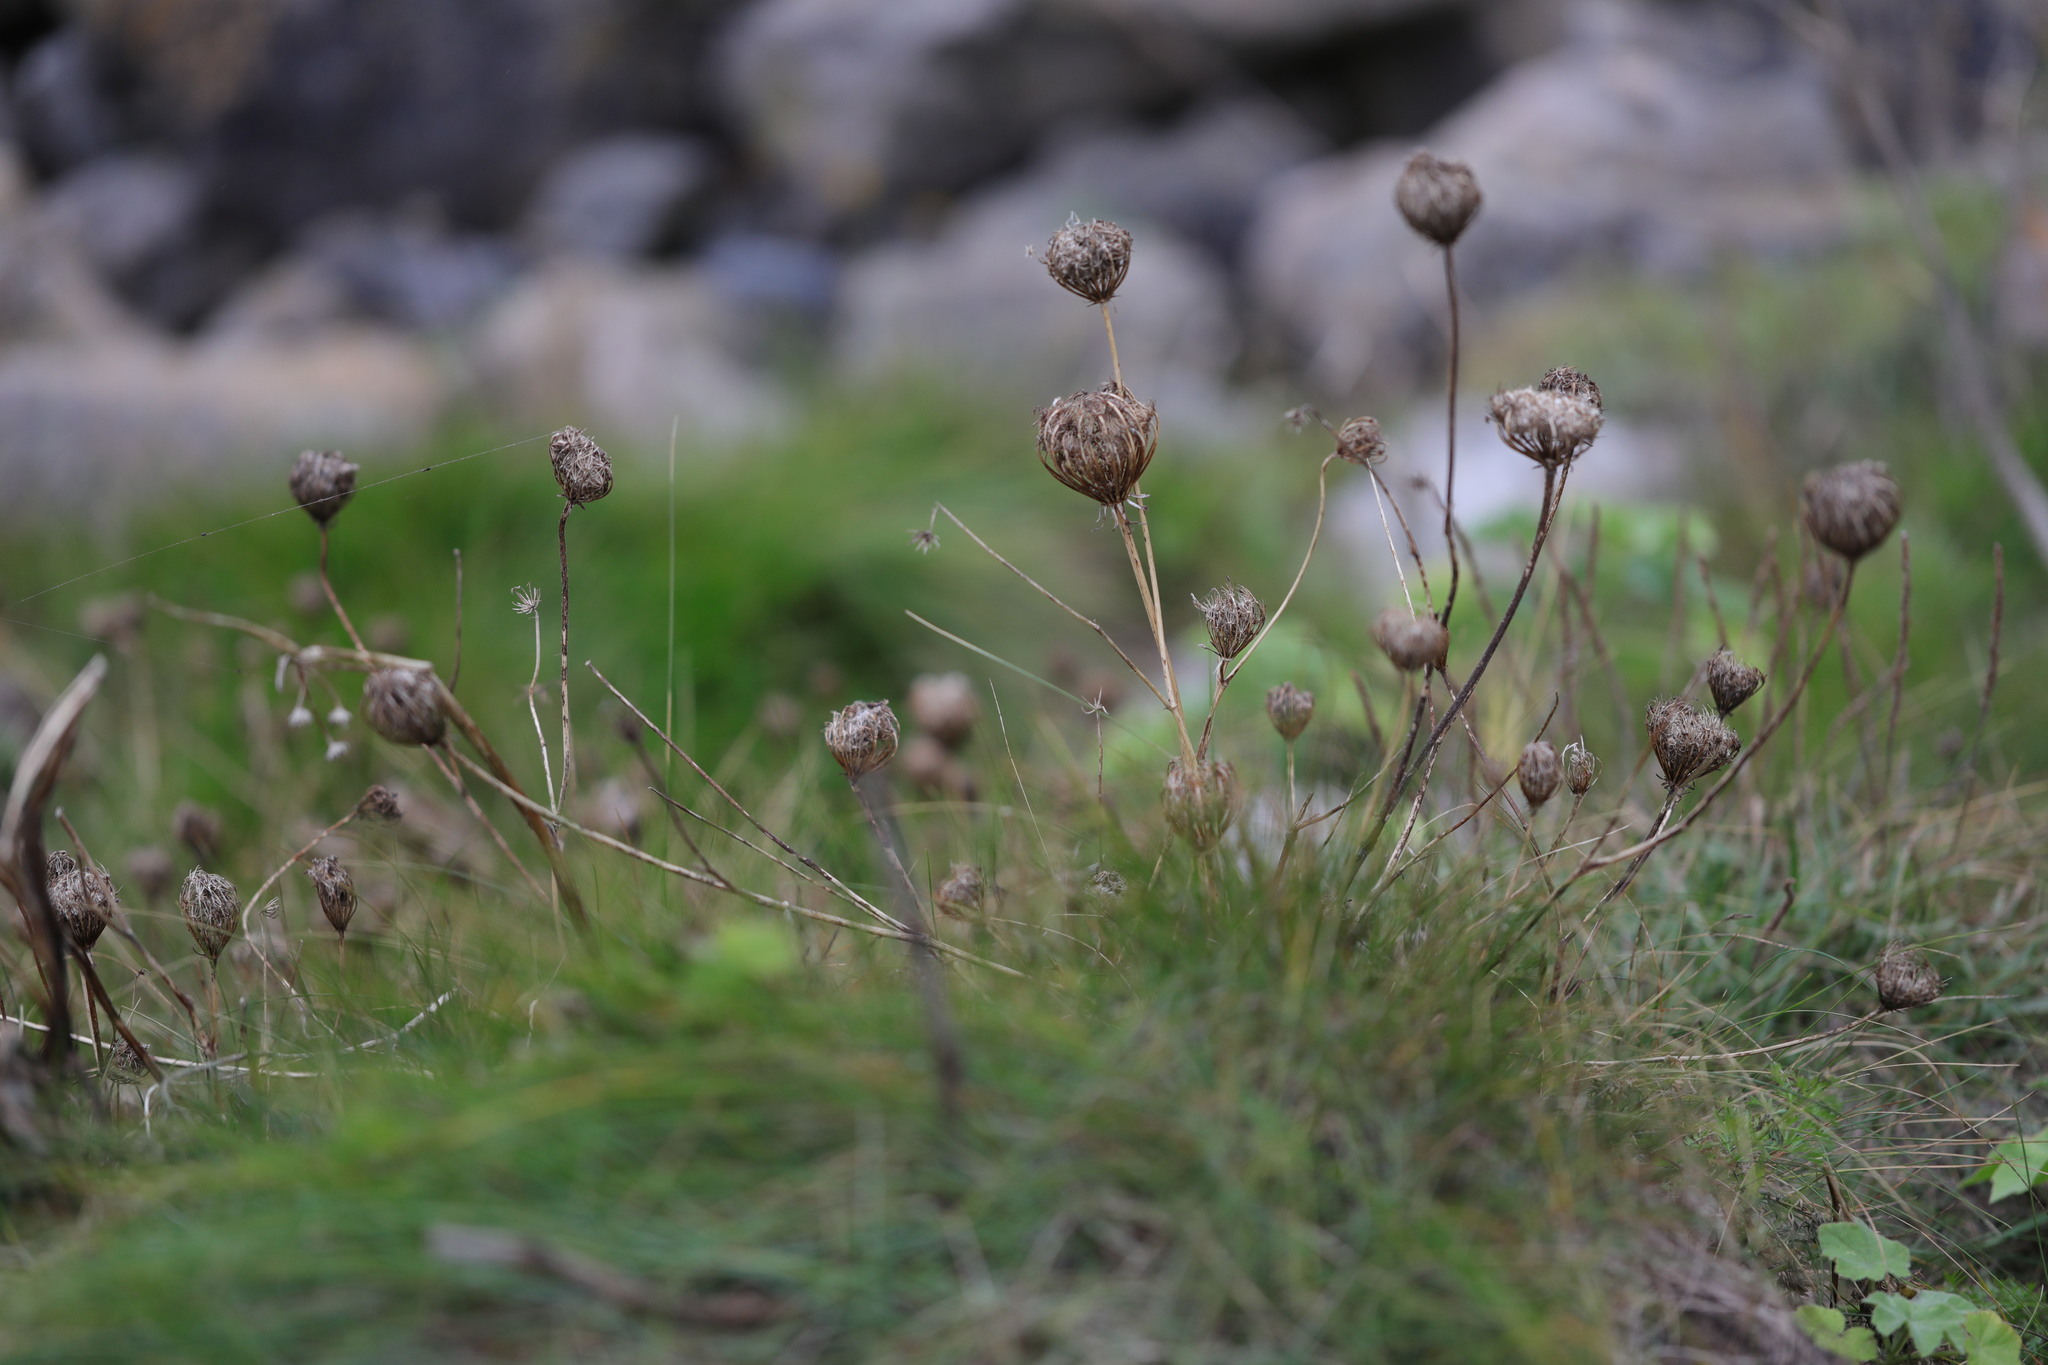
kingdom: Plantae
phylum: Tracheophyta
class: Magnoliopsida
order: Apiales
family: Apiaceae
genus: Daucus
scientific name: Daucus carota
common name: Wild carrot
